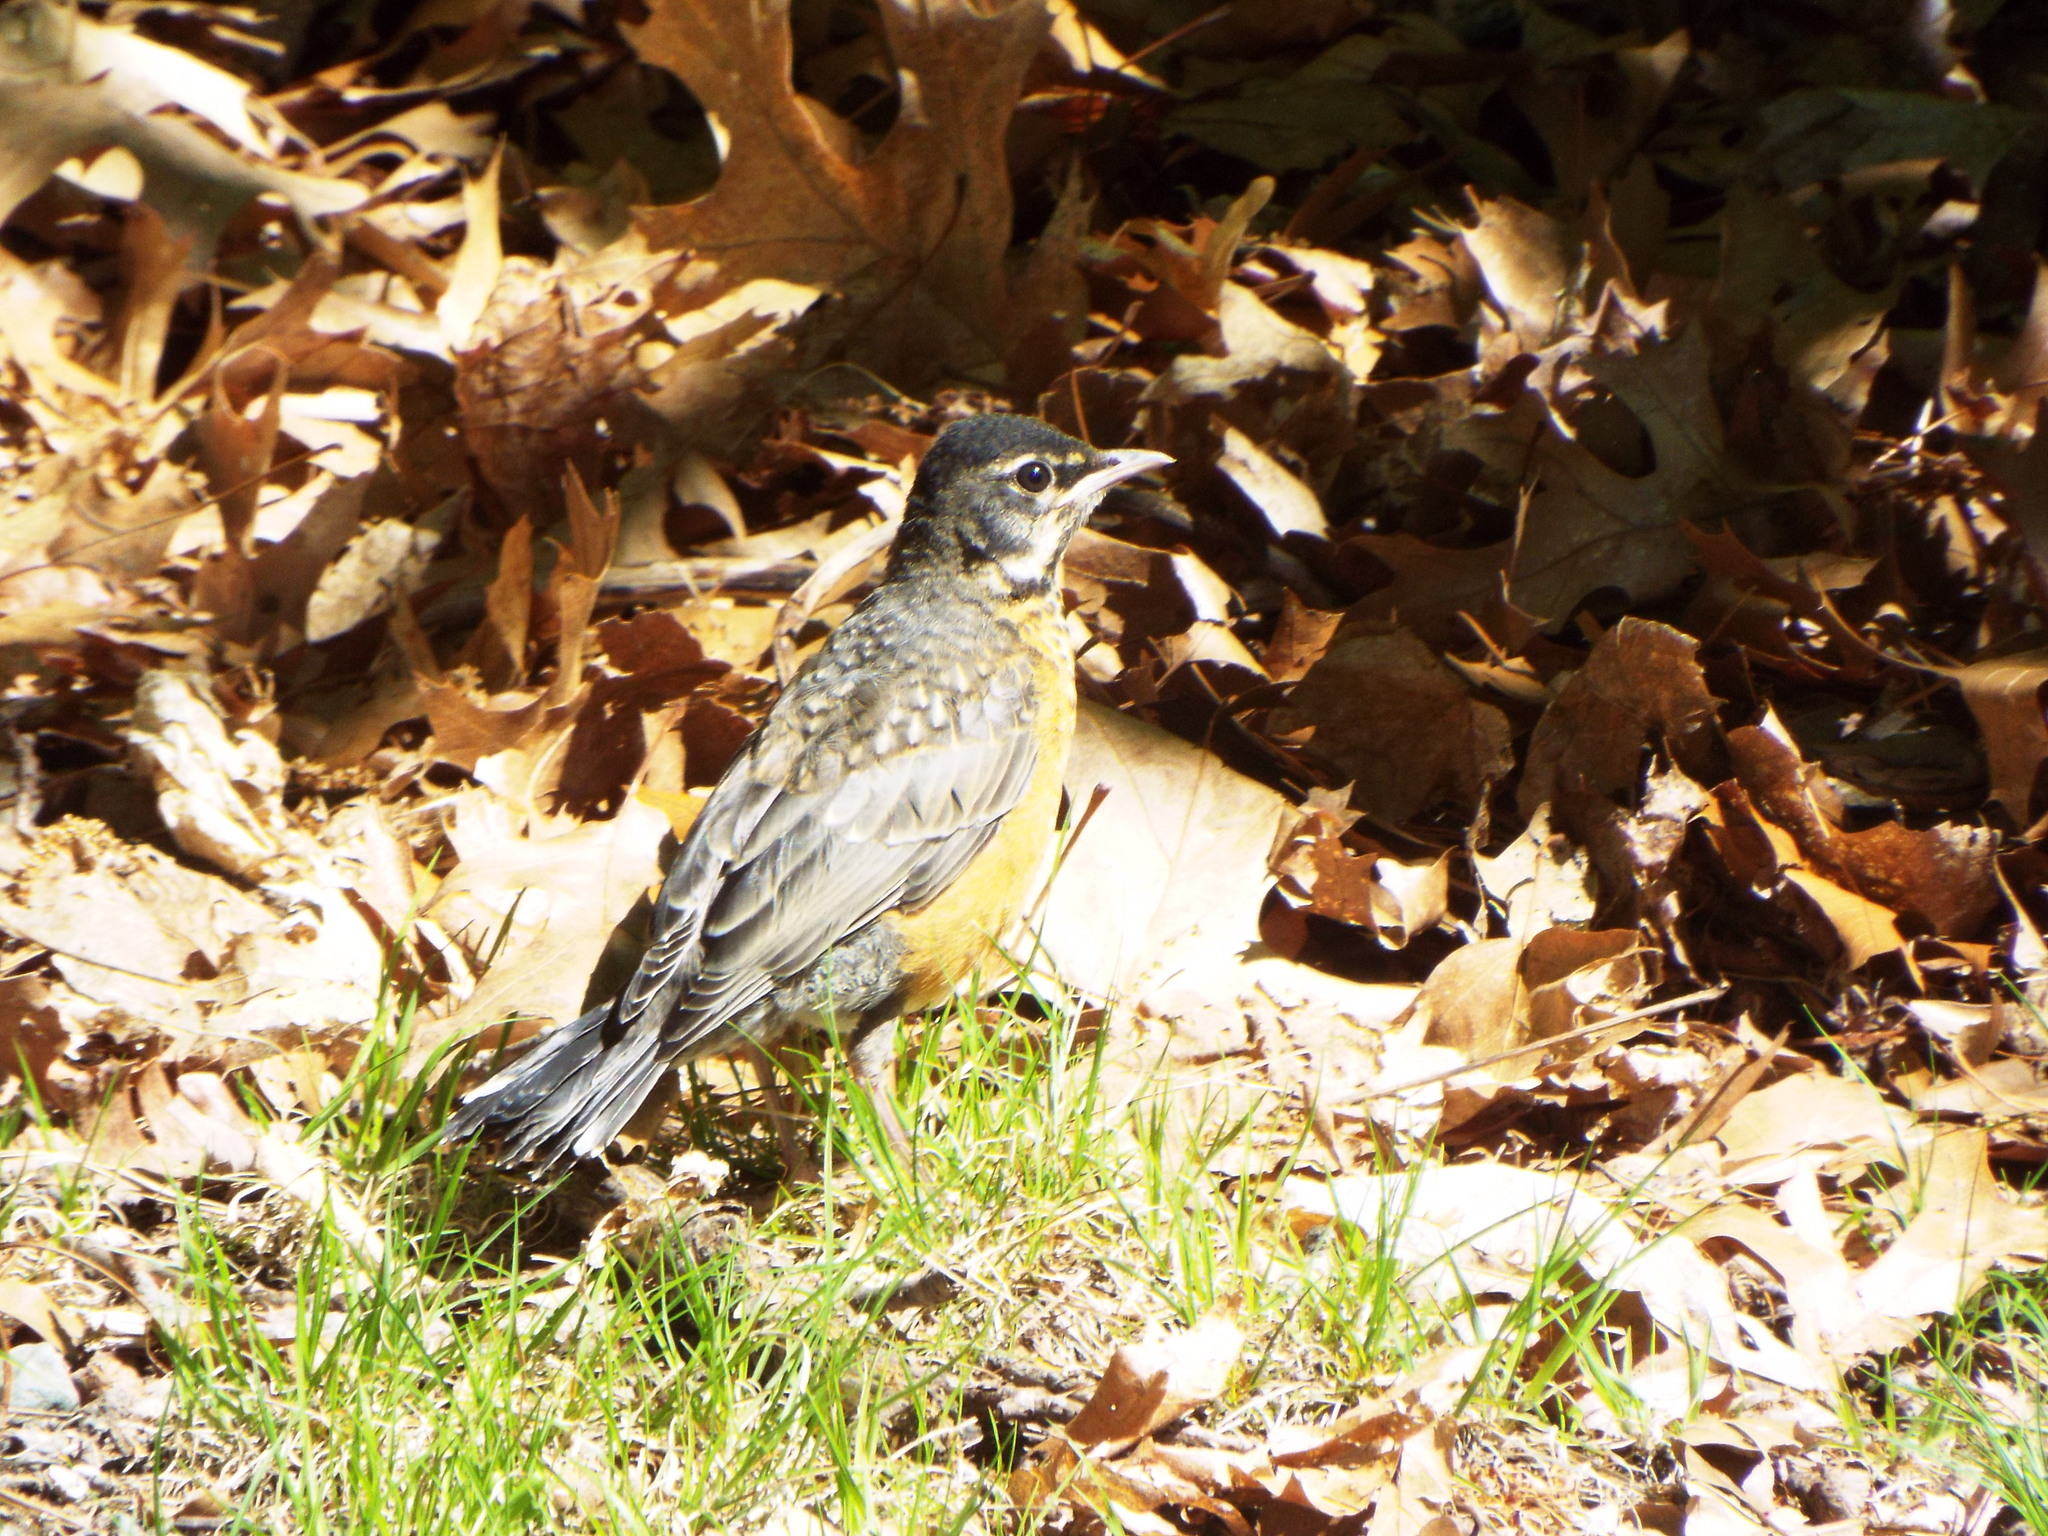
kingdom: Animalia
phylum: Chordata
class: Aves
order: Passeriformes
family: Turdidae
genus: Turdus
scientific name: Turdus migratorius
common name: American robin
